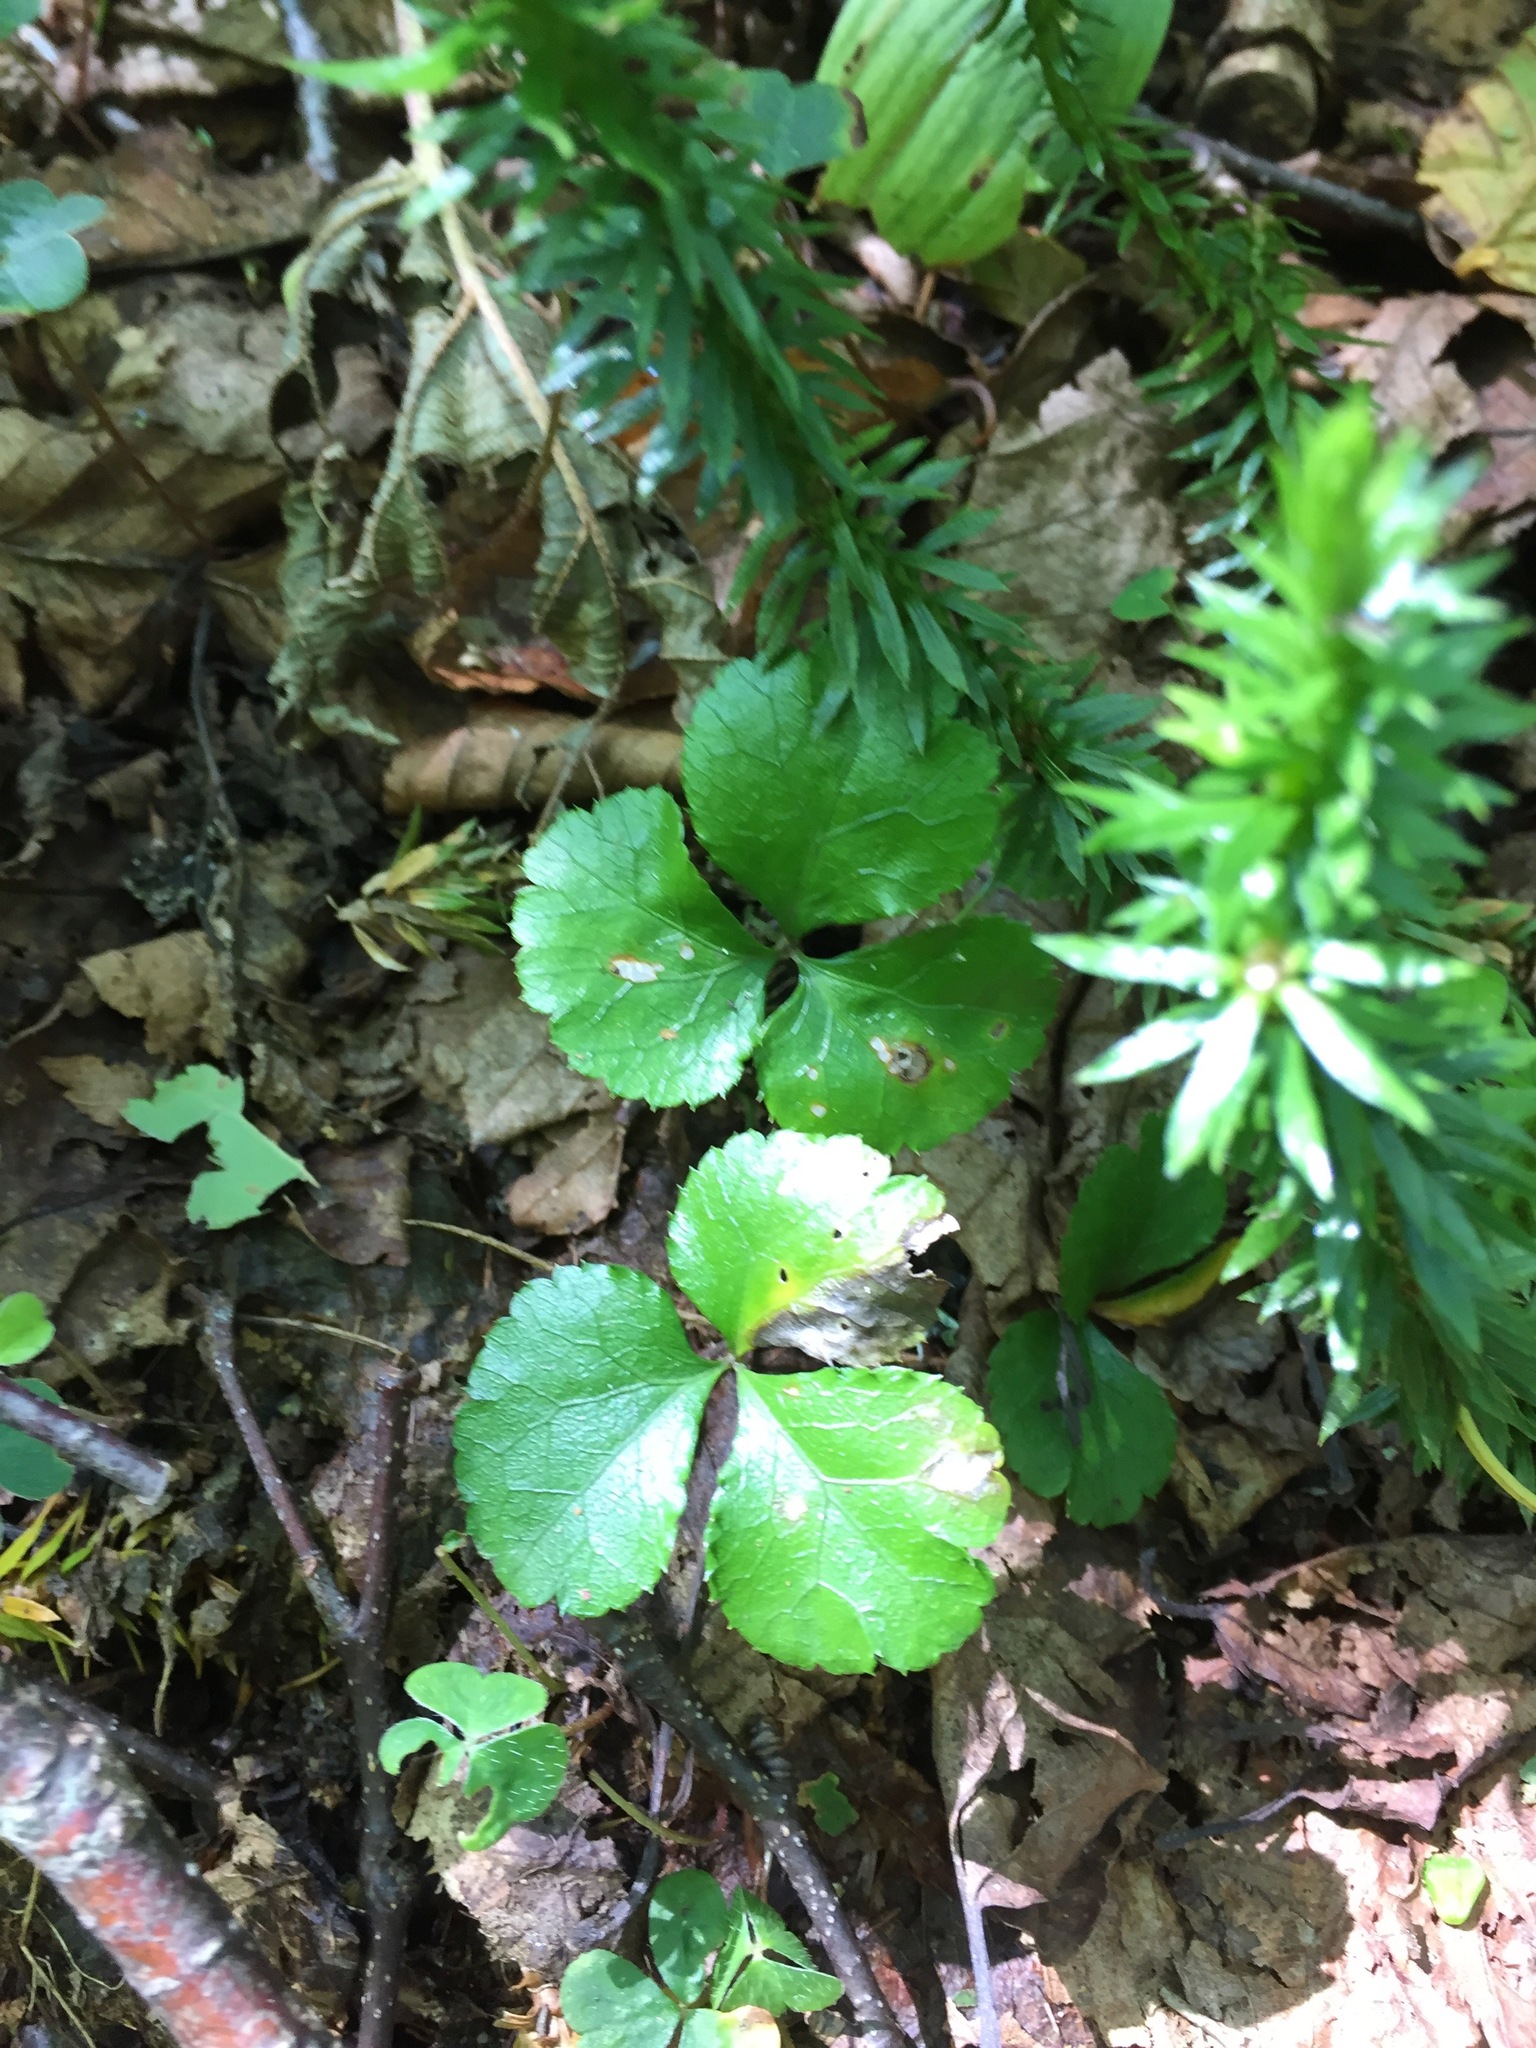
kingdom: Plantae
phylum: Tracheophyta
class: Magnoliopsida
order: Ranunculales
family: Ranunculaceae
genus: Coptis
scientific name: Coptis trifolia
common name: Canker-root
